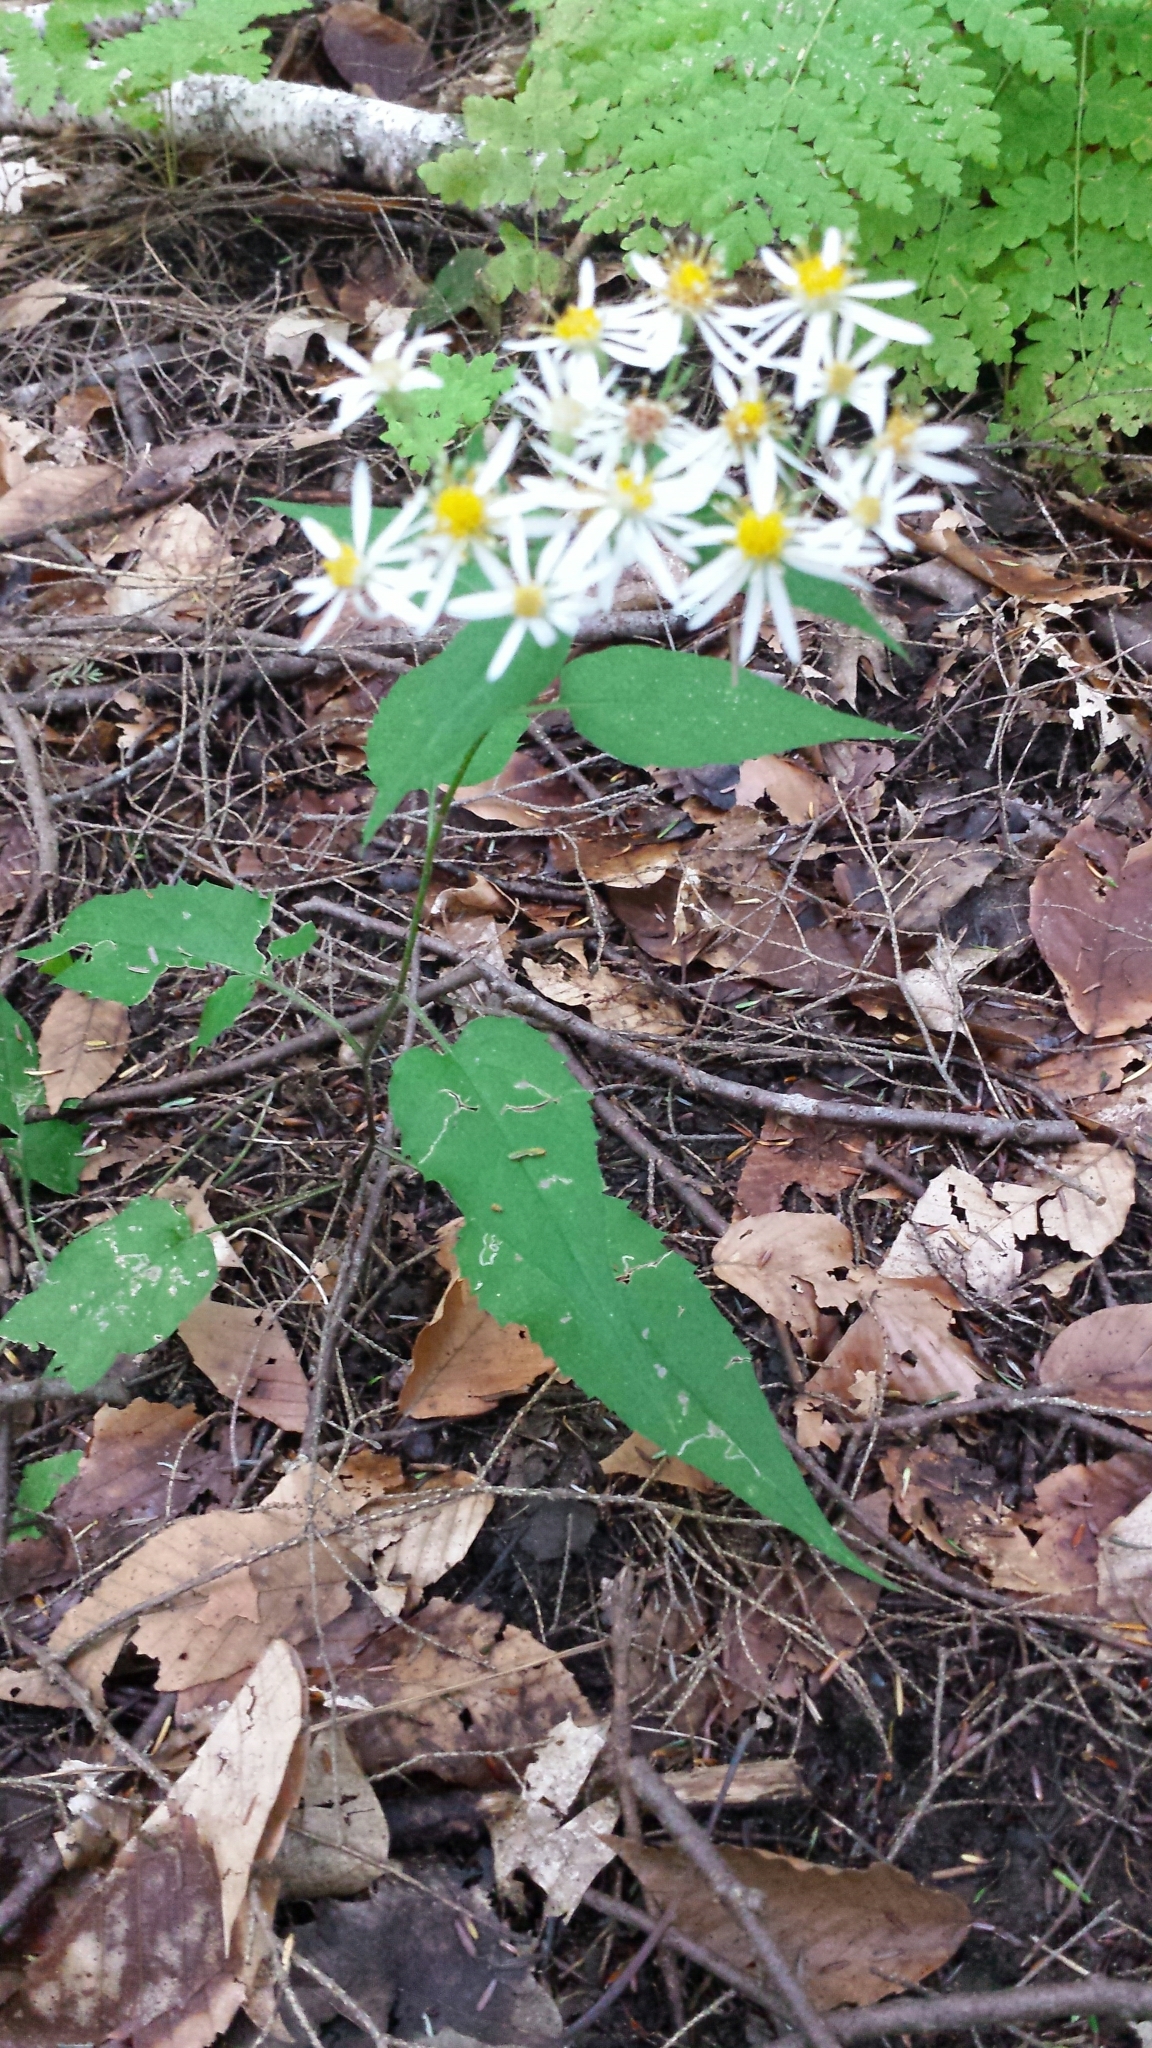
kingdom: Plantae
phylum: Tracheophyta
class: Magnoliopsida
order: Asterales
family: Asteraceae
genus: Eurybia
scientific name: Eurybia divaricata
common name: White wood aster
